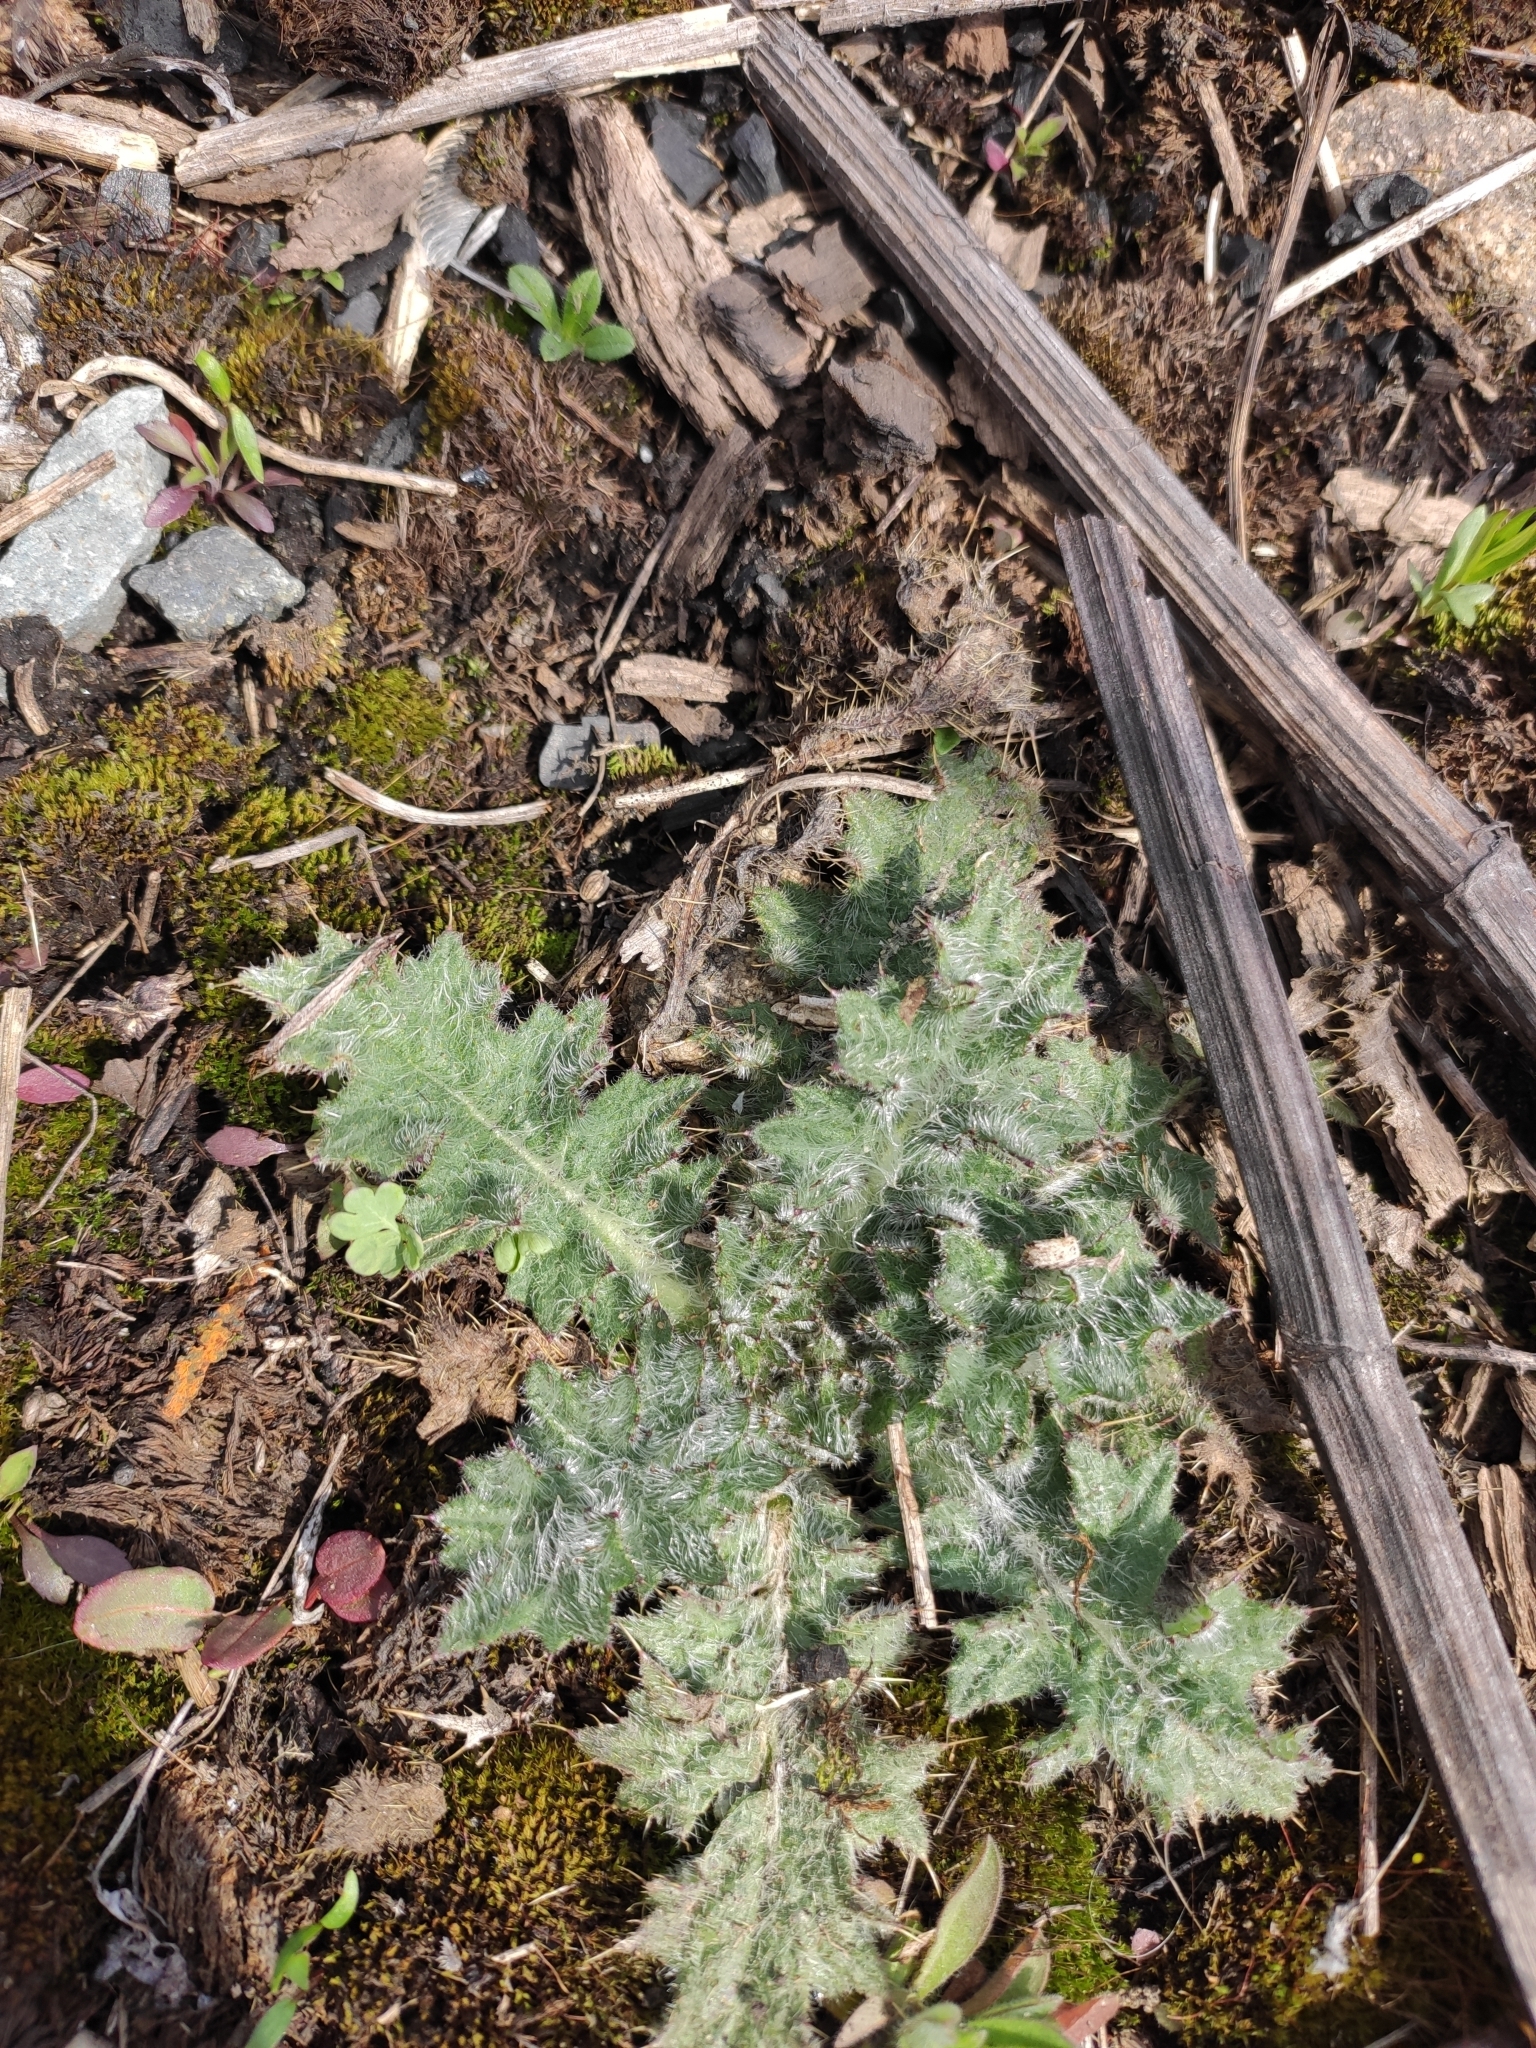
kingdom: Plantae
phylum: Tracheophyta
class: Magnoliopsida
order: Asterales
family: Asteraceae
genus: Cirsium
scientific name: Cirsium vulgare
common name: Bull thistle
